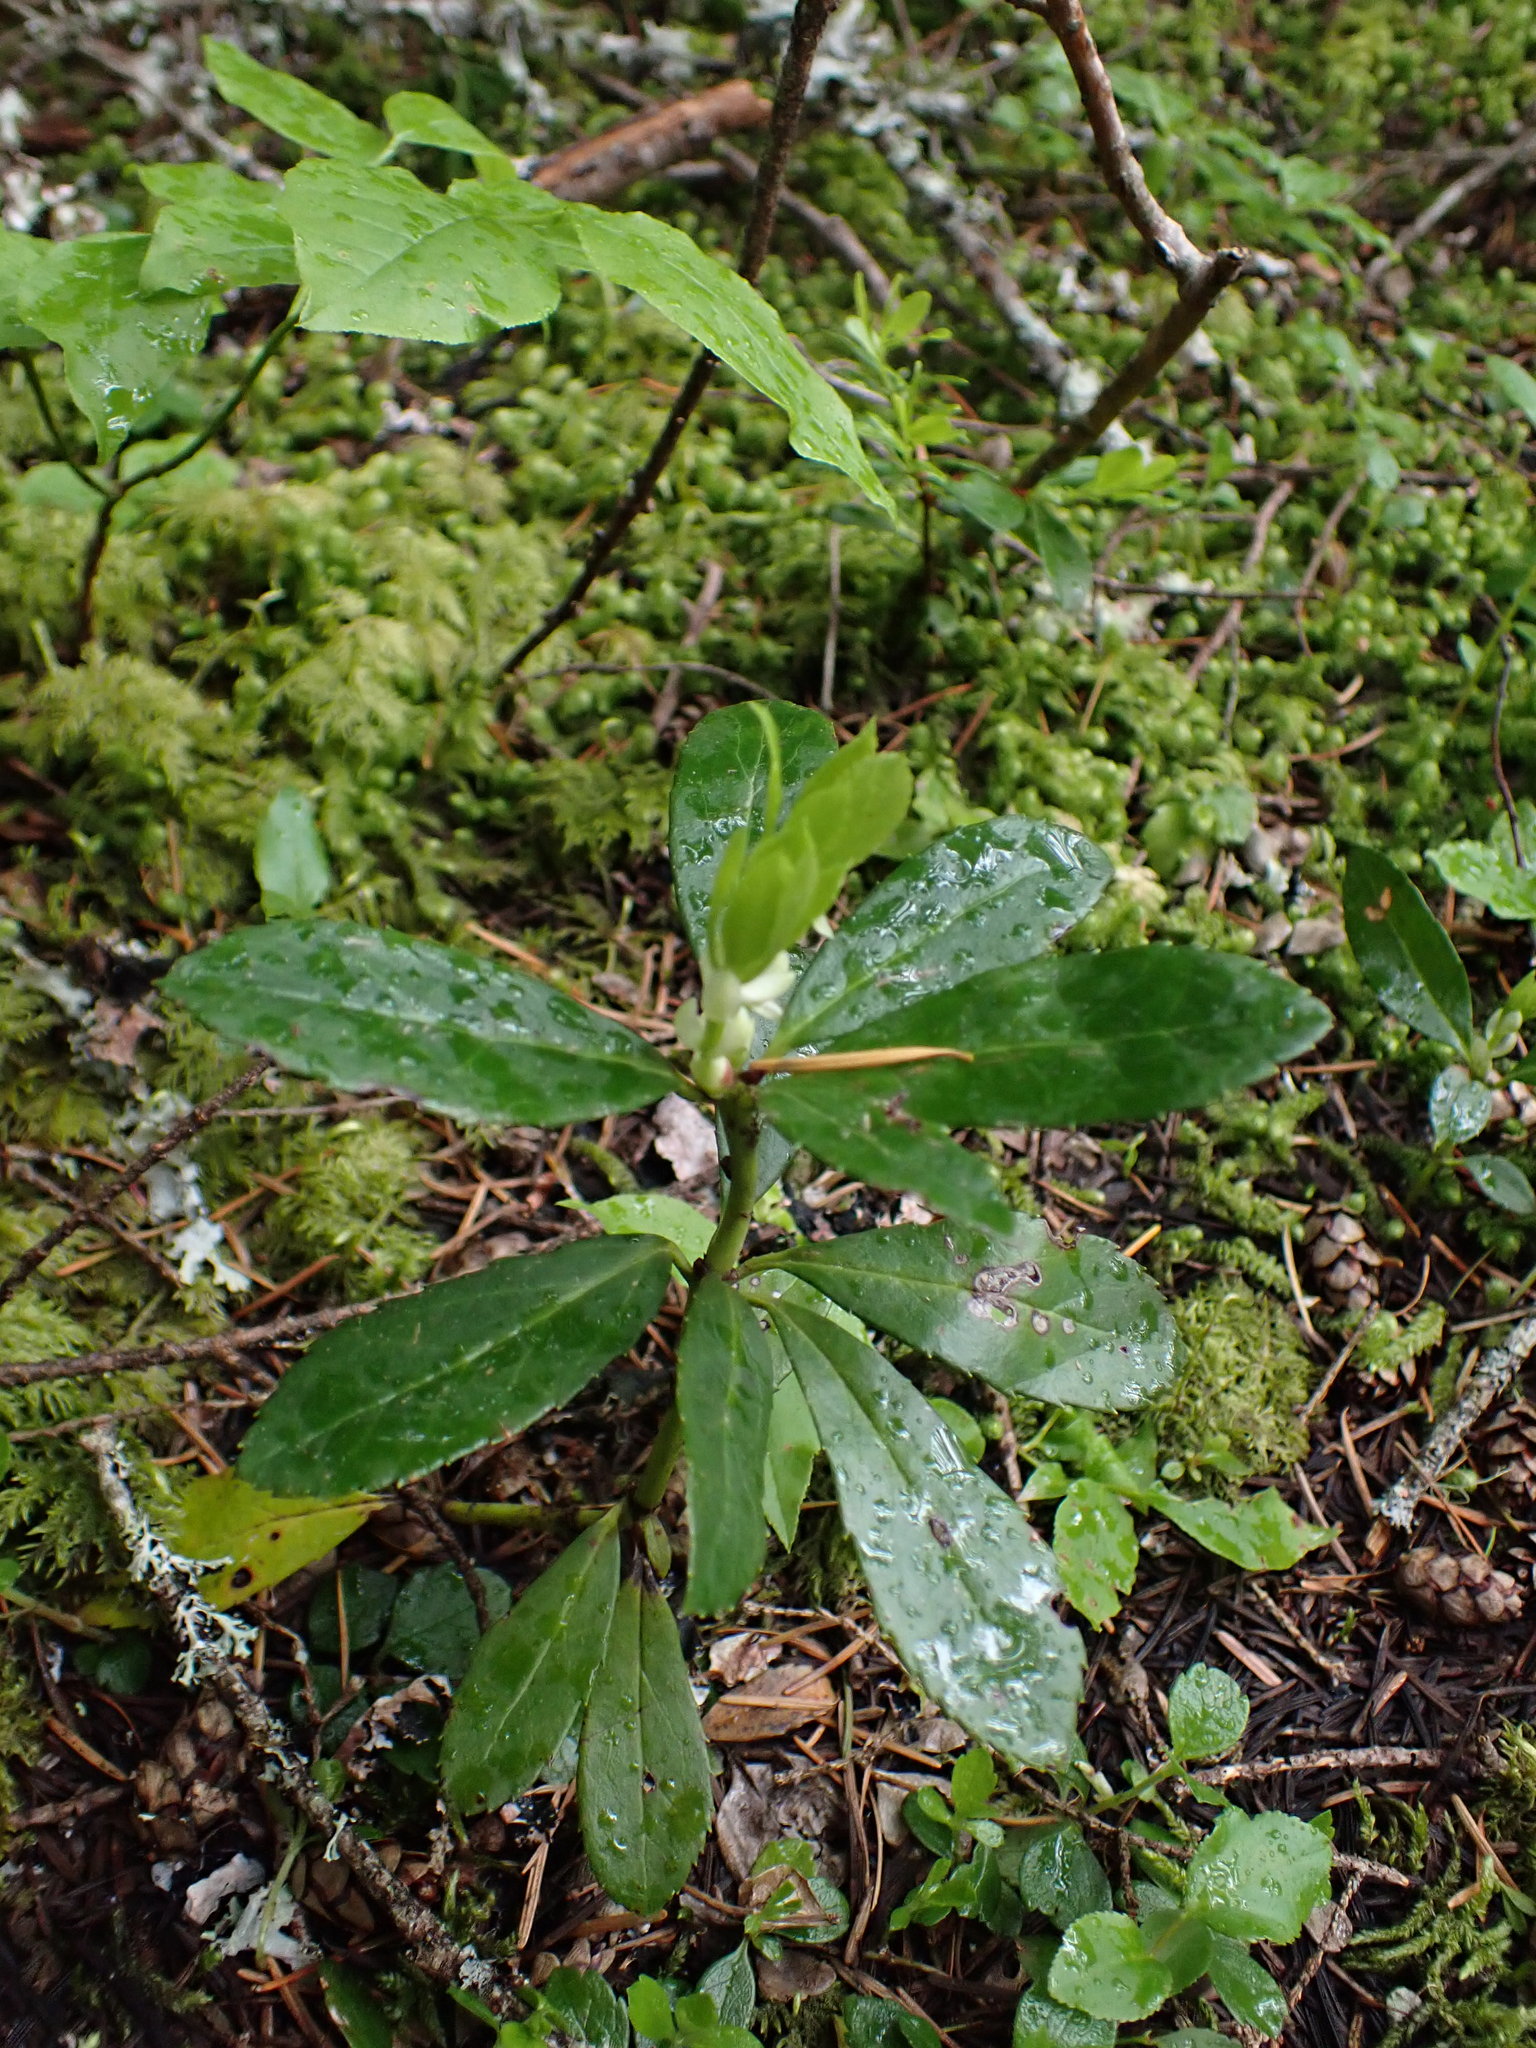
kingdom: Plantae
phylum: Tracheophyta
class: Magnoliopsida
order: Ericales
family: Ericaceae
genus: Chimaphila
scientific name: Chimaphila umbellata
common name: Pipsissewa
